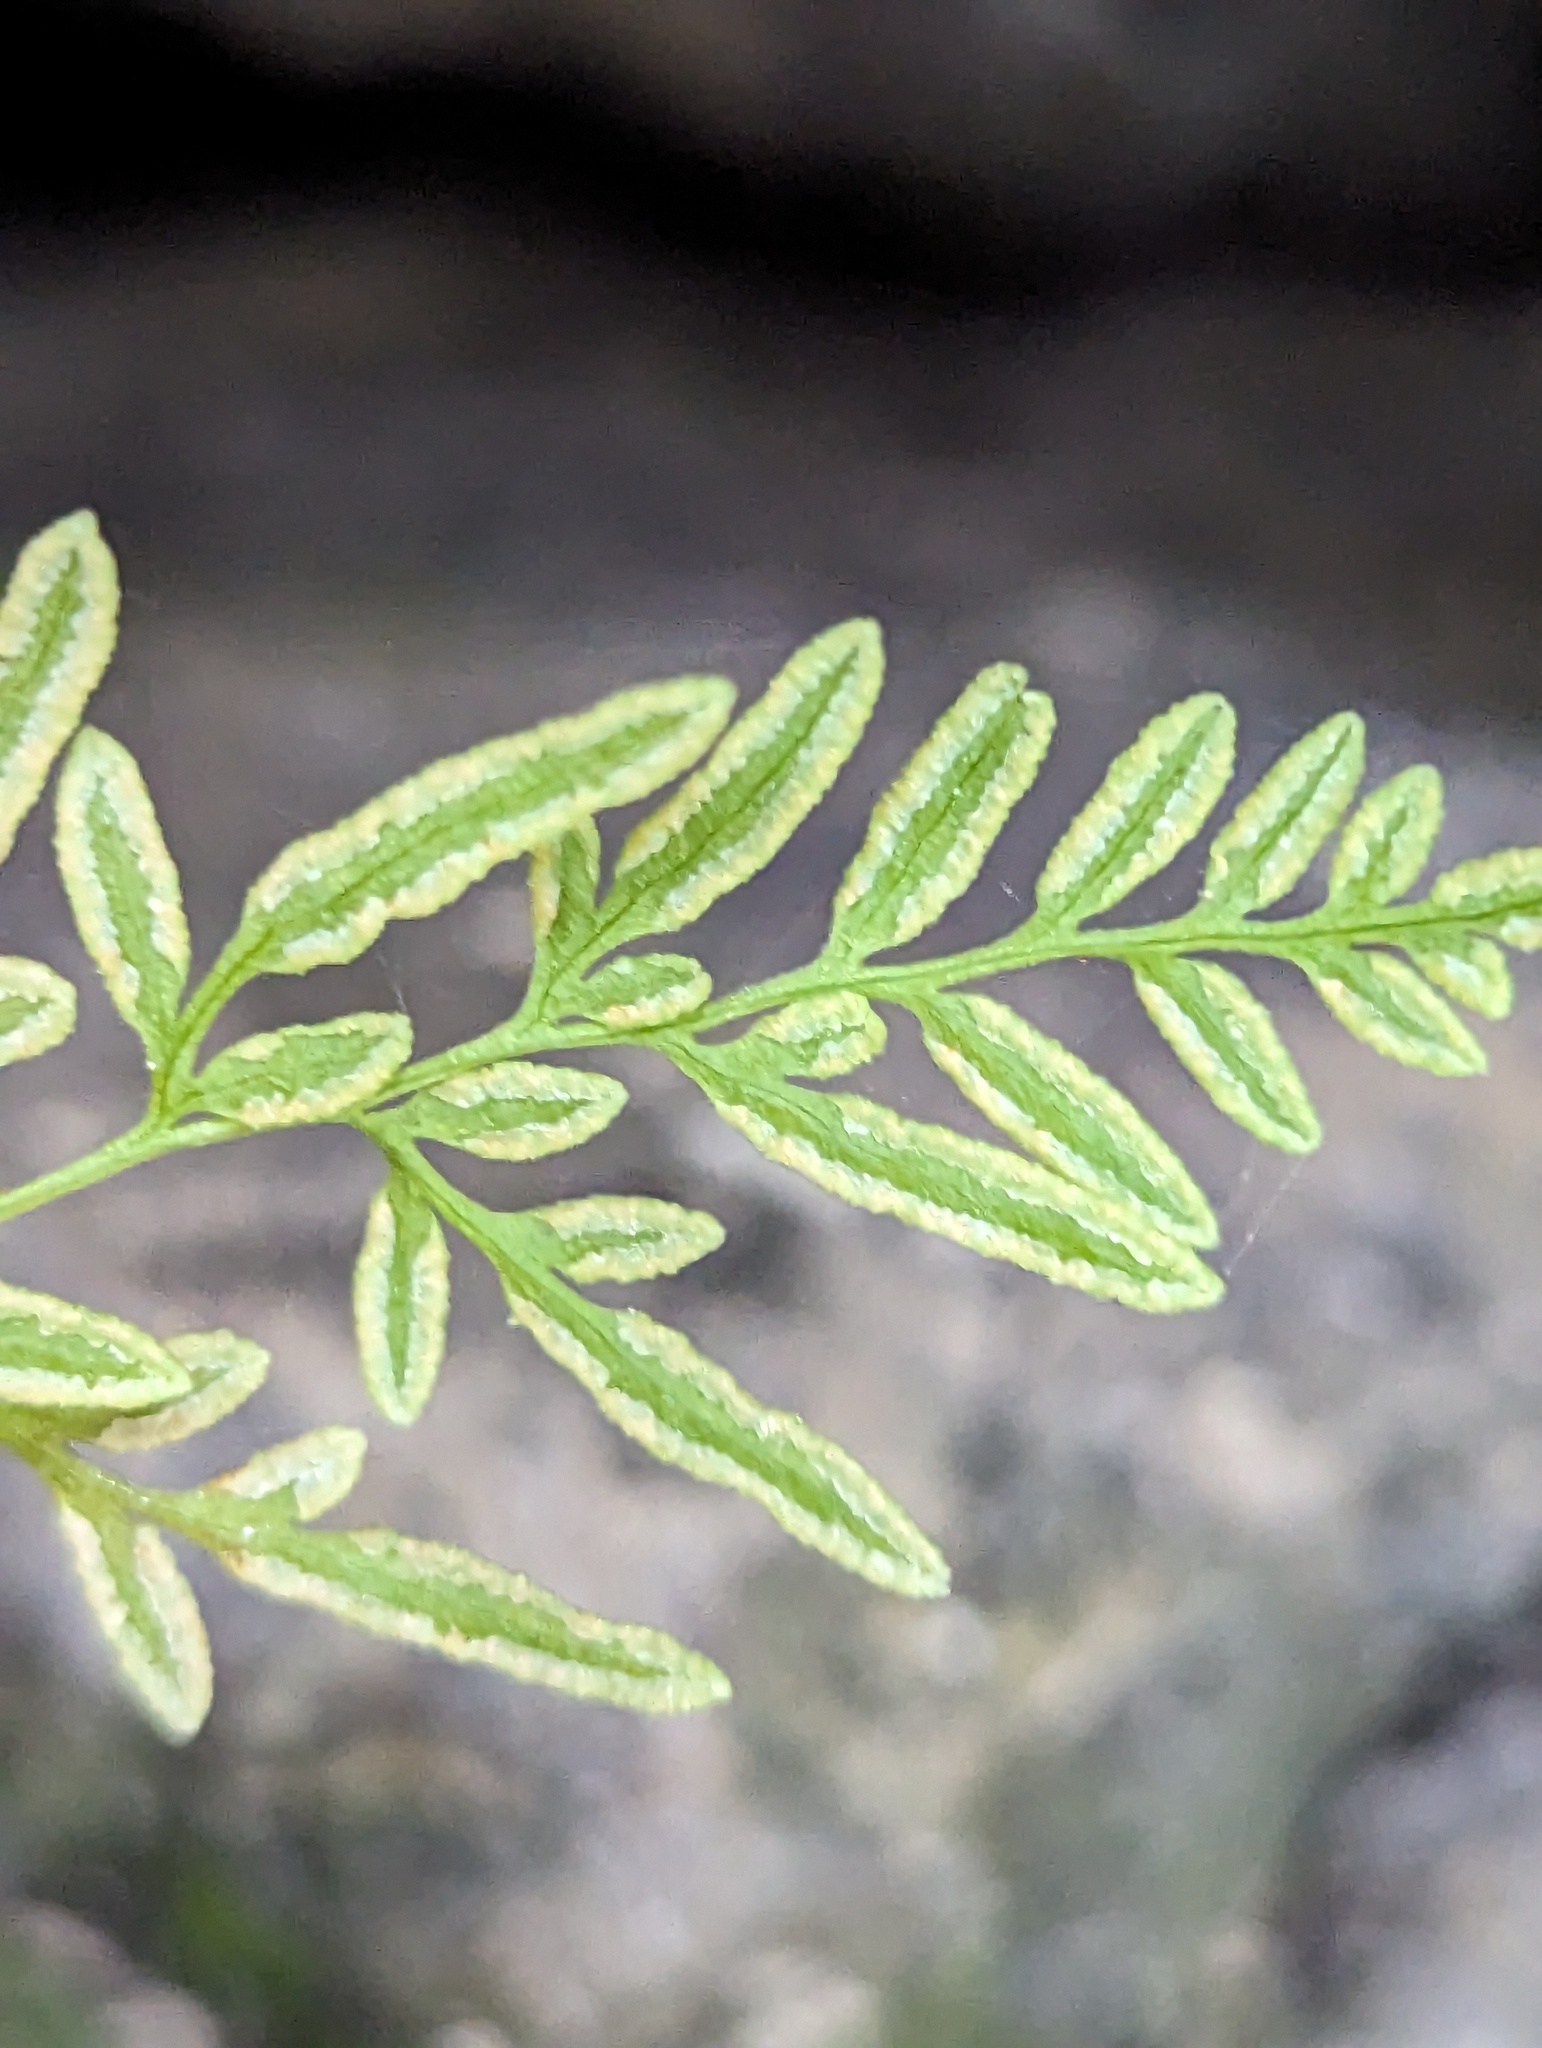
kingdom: Plantae
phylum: Tracheophyta
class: Polypodiopsida
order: Polypodiales
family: Pteridaceae
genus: Cryptogramma
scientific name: Cryptogramma stelleri
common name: Cliff-brake
